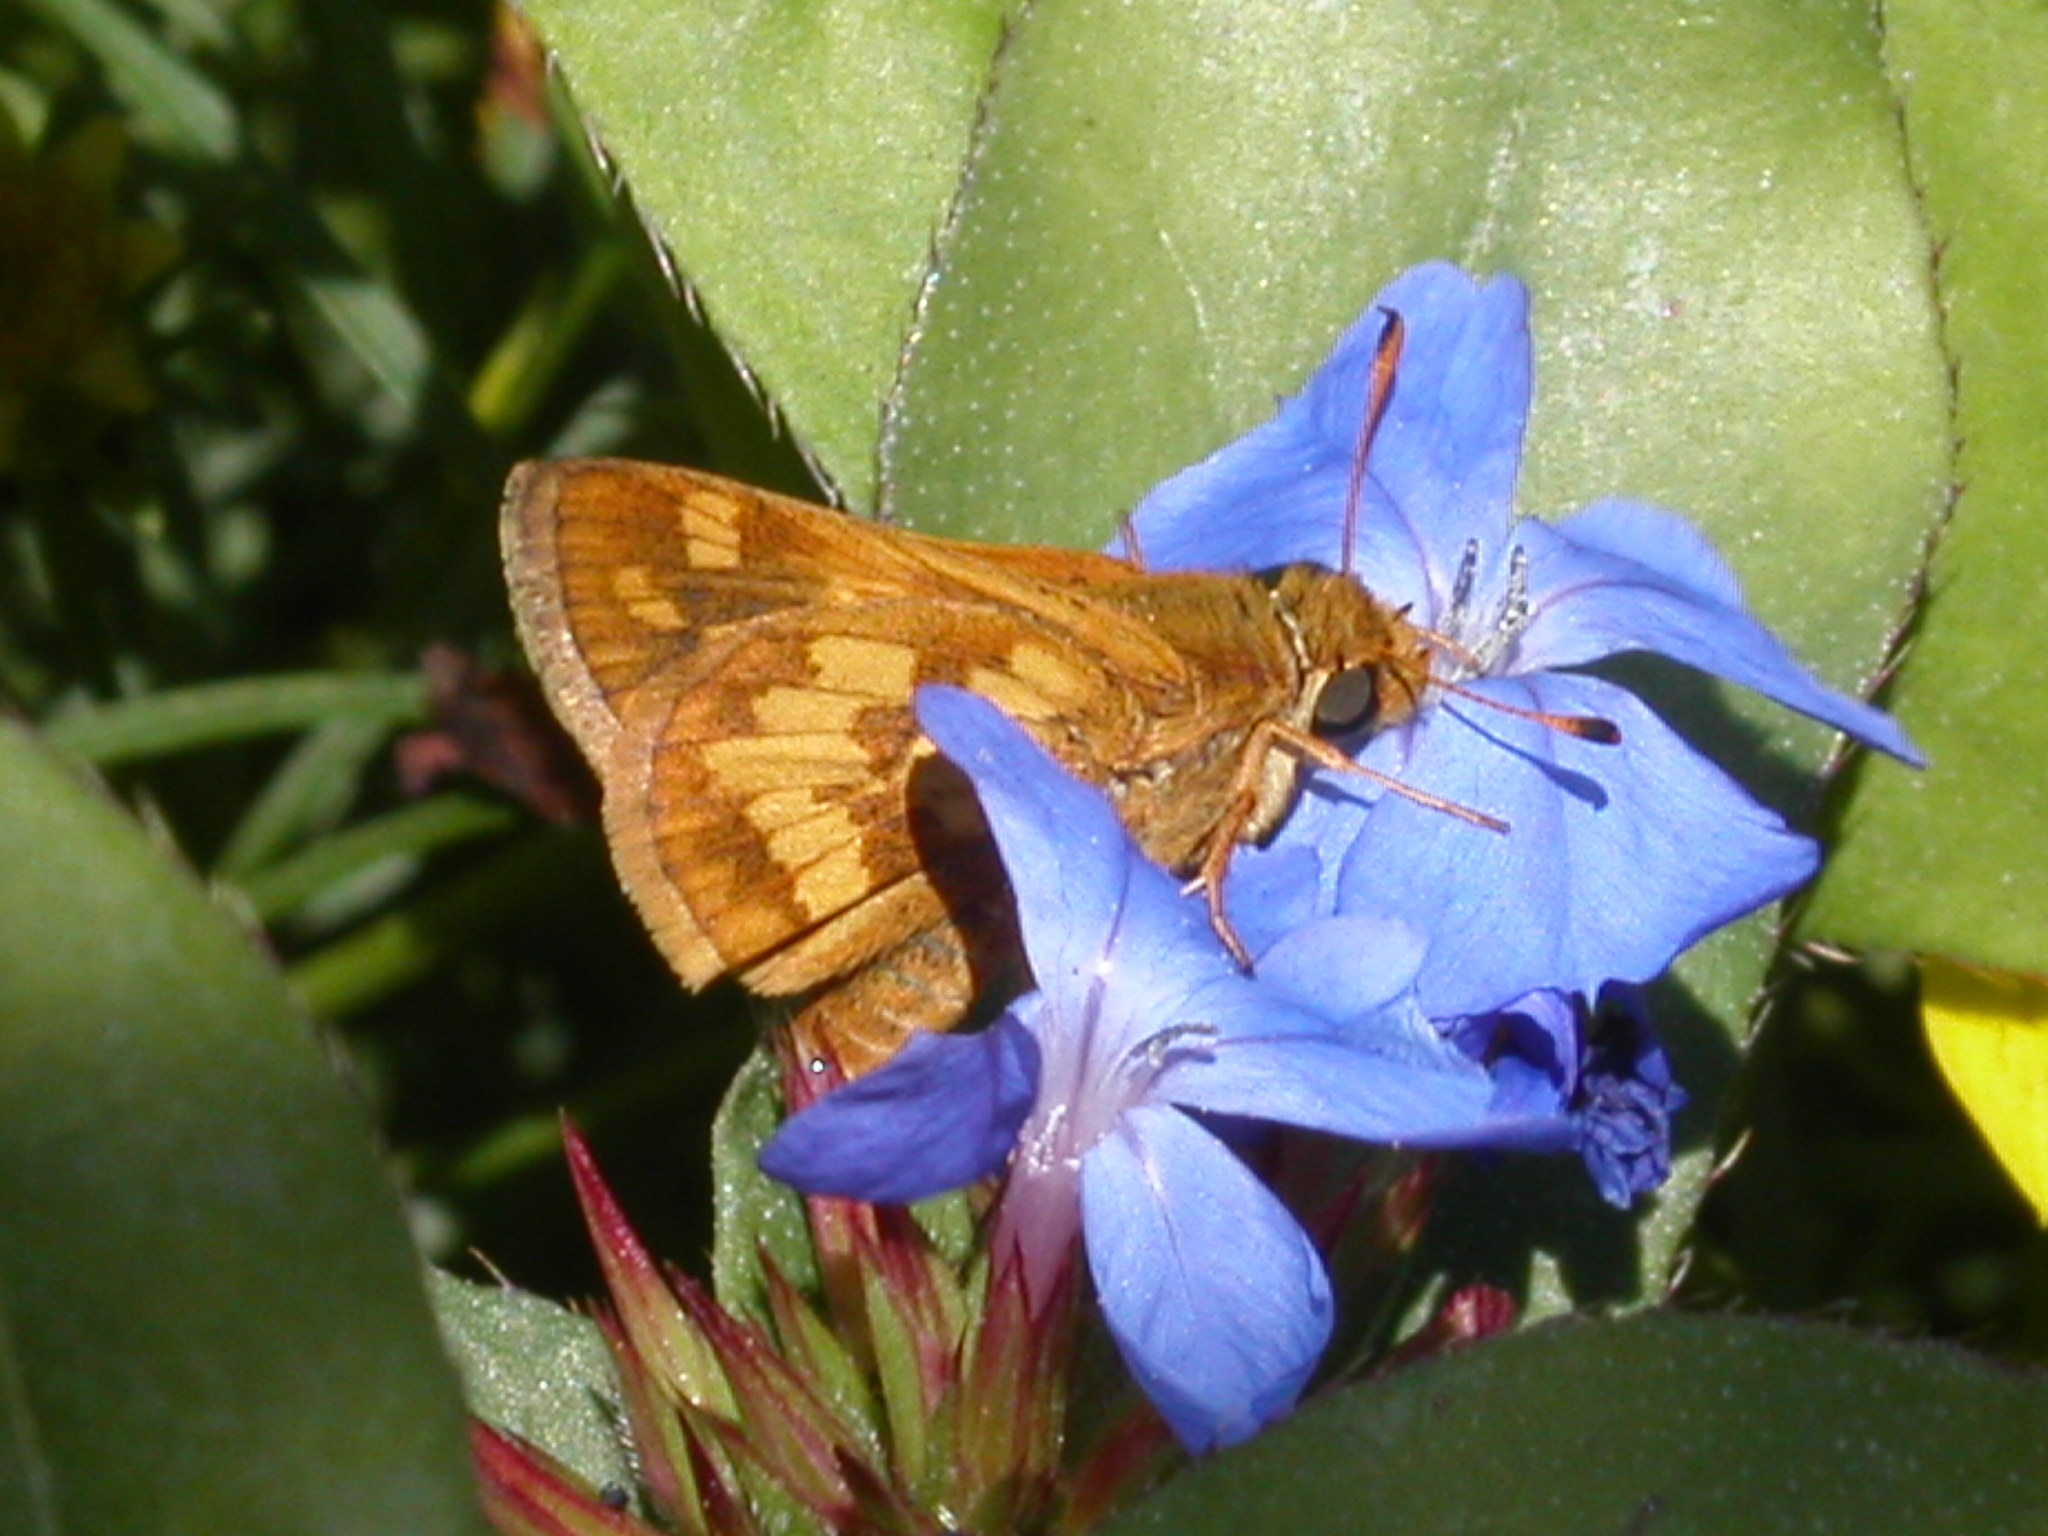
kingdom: Animalia
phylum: Arthropoda
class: Insecta
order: Lepidoptera
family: Hesperiidae
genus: Polites
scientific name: Polites coras
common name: Peck's skipper
